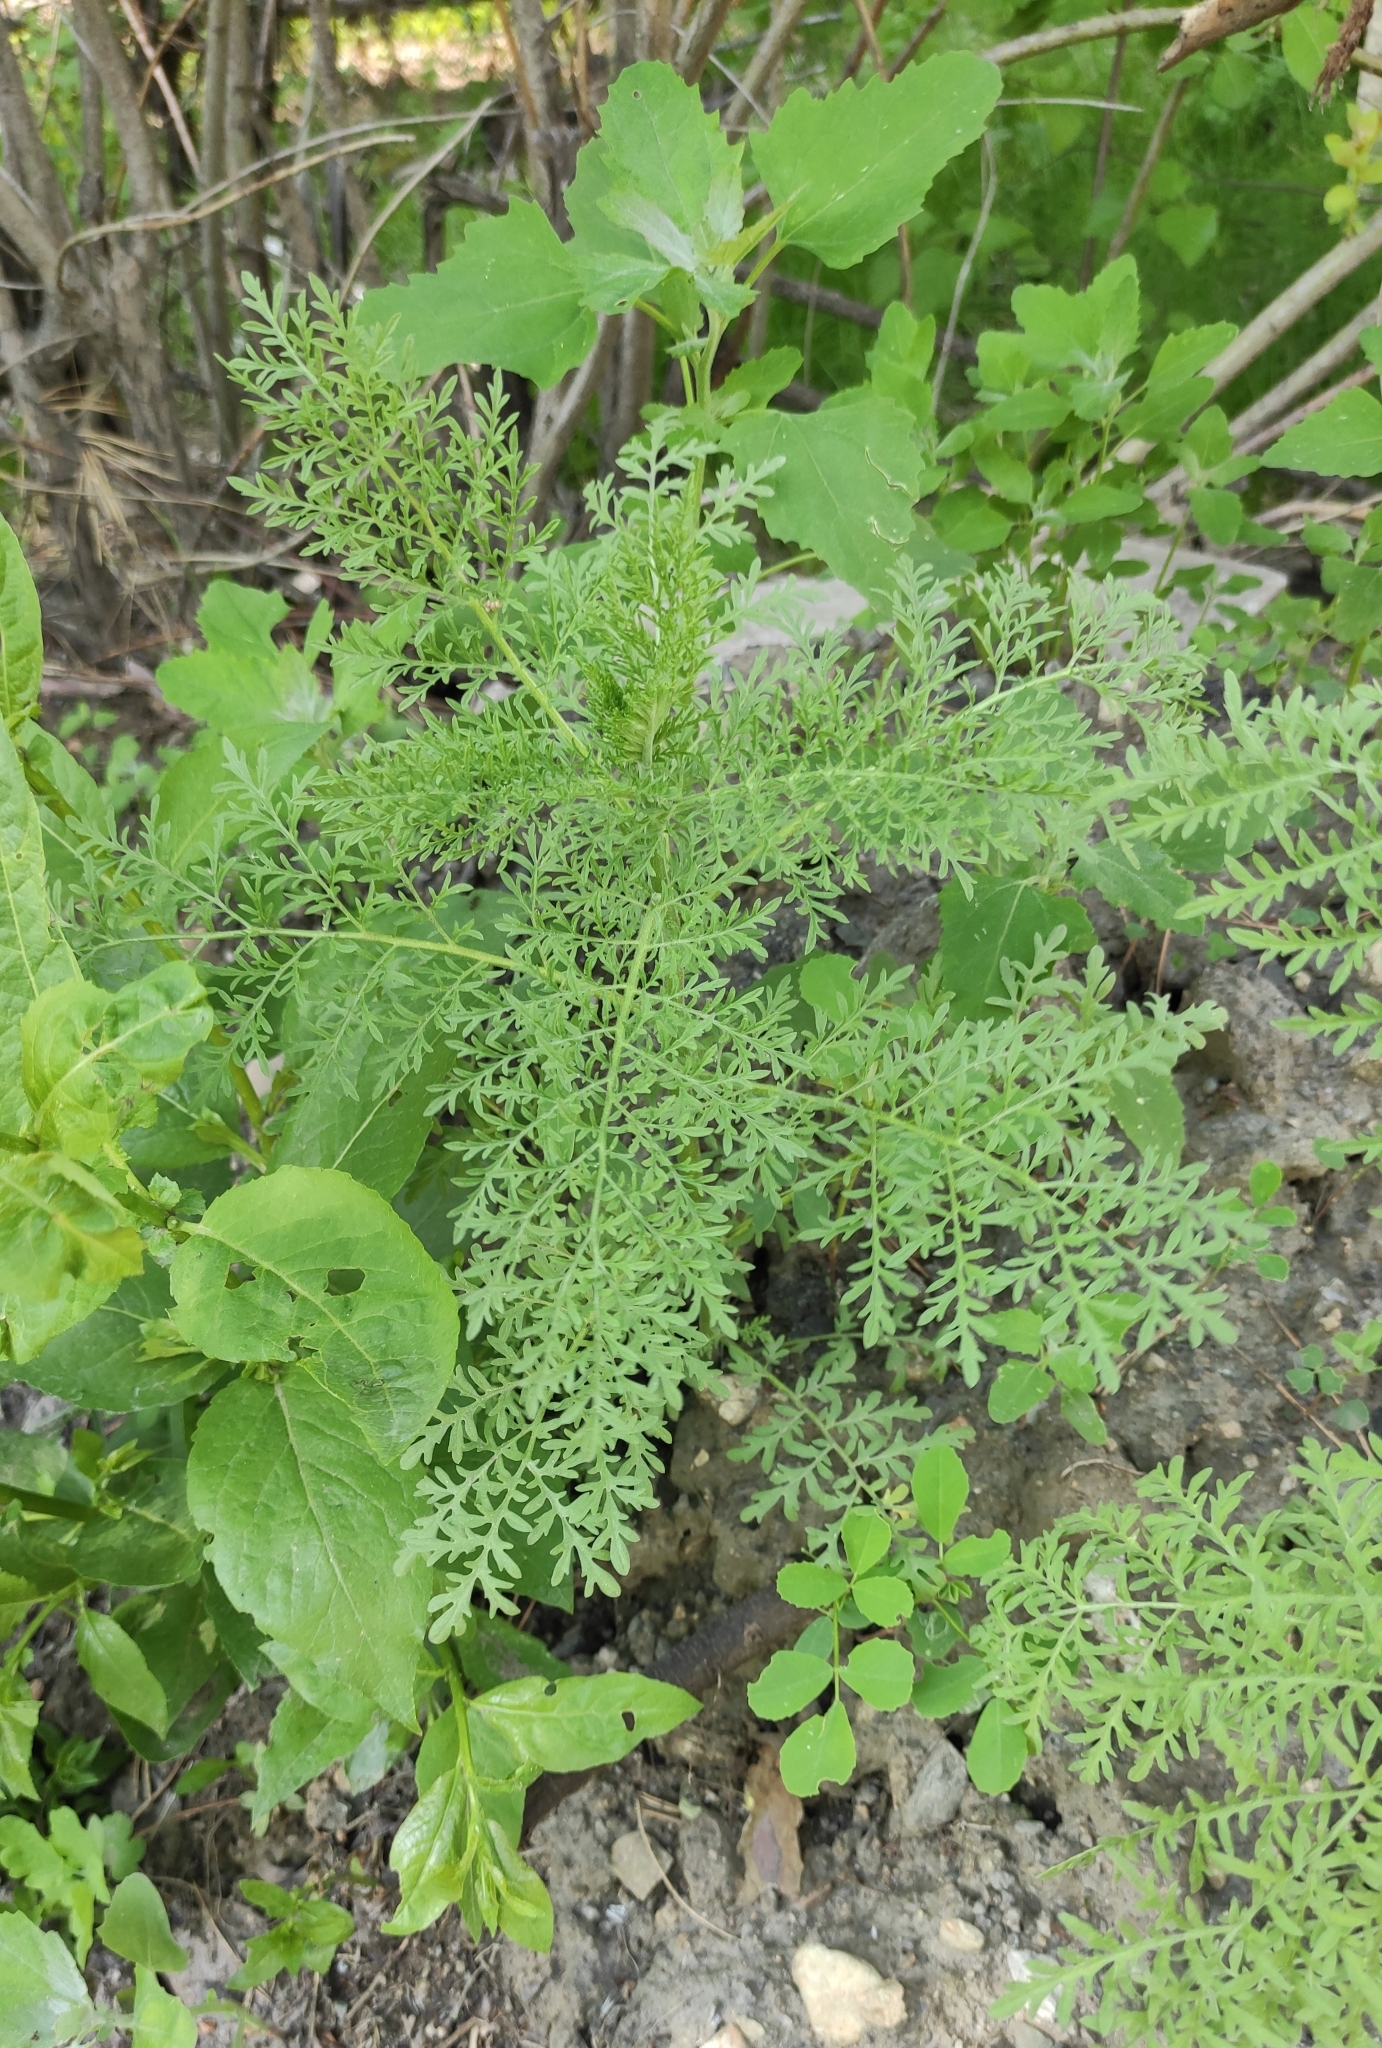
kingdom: Plantae
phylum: Tracheophyta
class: Magnoliopsida
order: Brassicales
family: Brassicaceae
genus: Descurainia
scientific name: Descurainia sophia
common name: Flixweed
